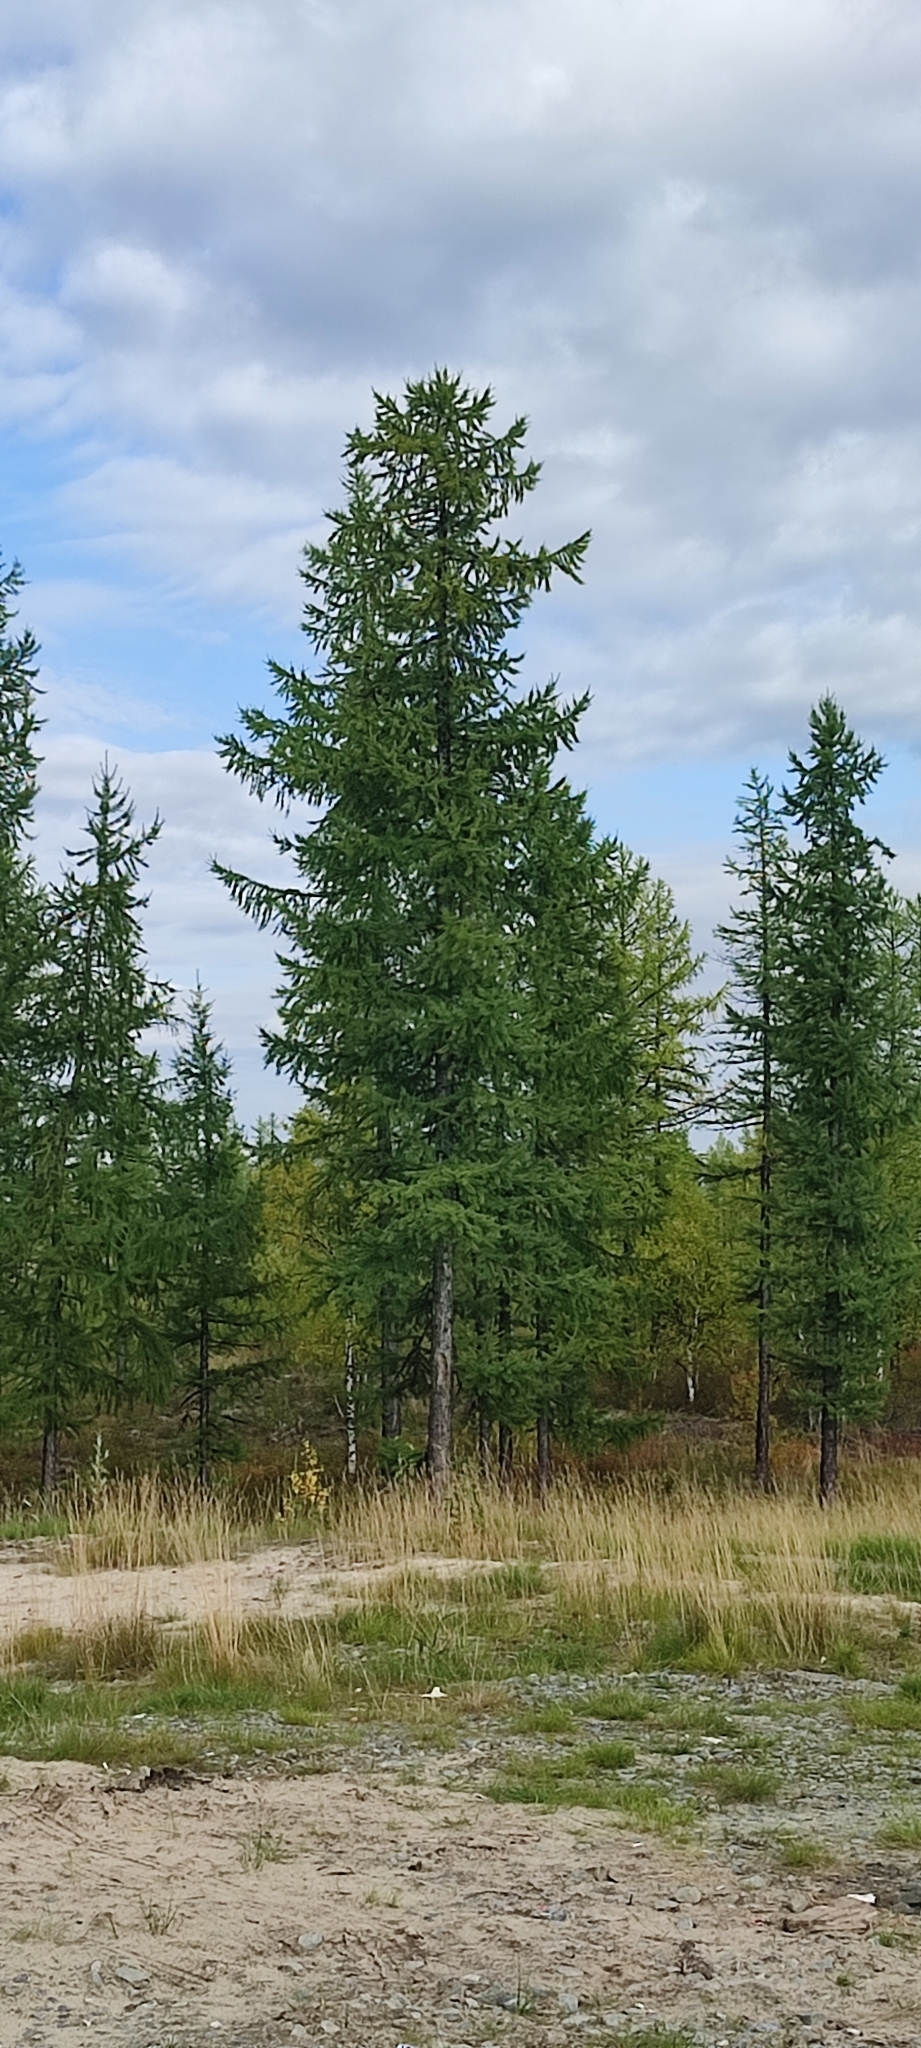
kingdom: Plantae
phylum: Tracheophyta
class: Pinopsida
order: Pinales
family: Pinaceae
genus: Larix
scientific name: Larix sibirica
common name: Siberian larch
